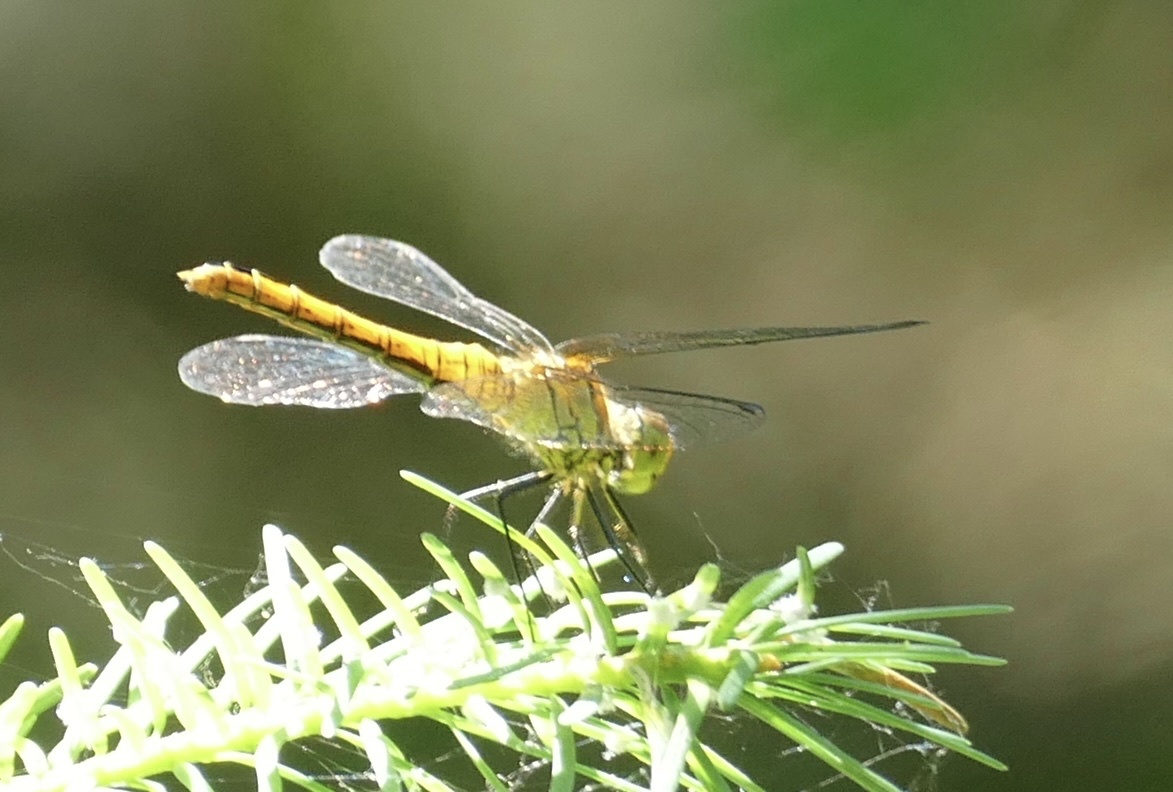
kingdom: Animalia
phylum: Arthropoda
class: Insecta
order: Odonata
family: Libellulidae
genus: Sympetrum
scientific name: Sympetrum sanguineum
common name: Ruddy darter
